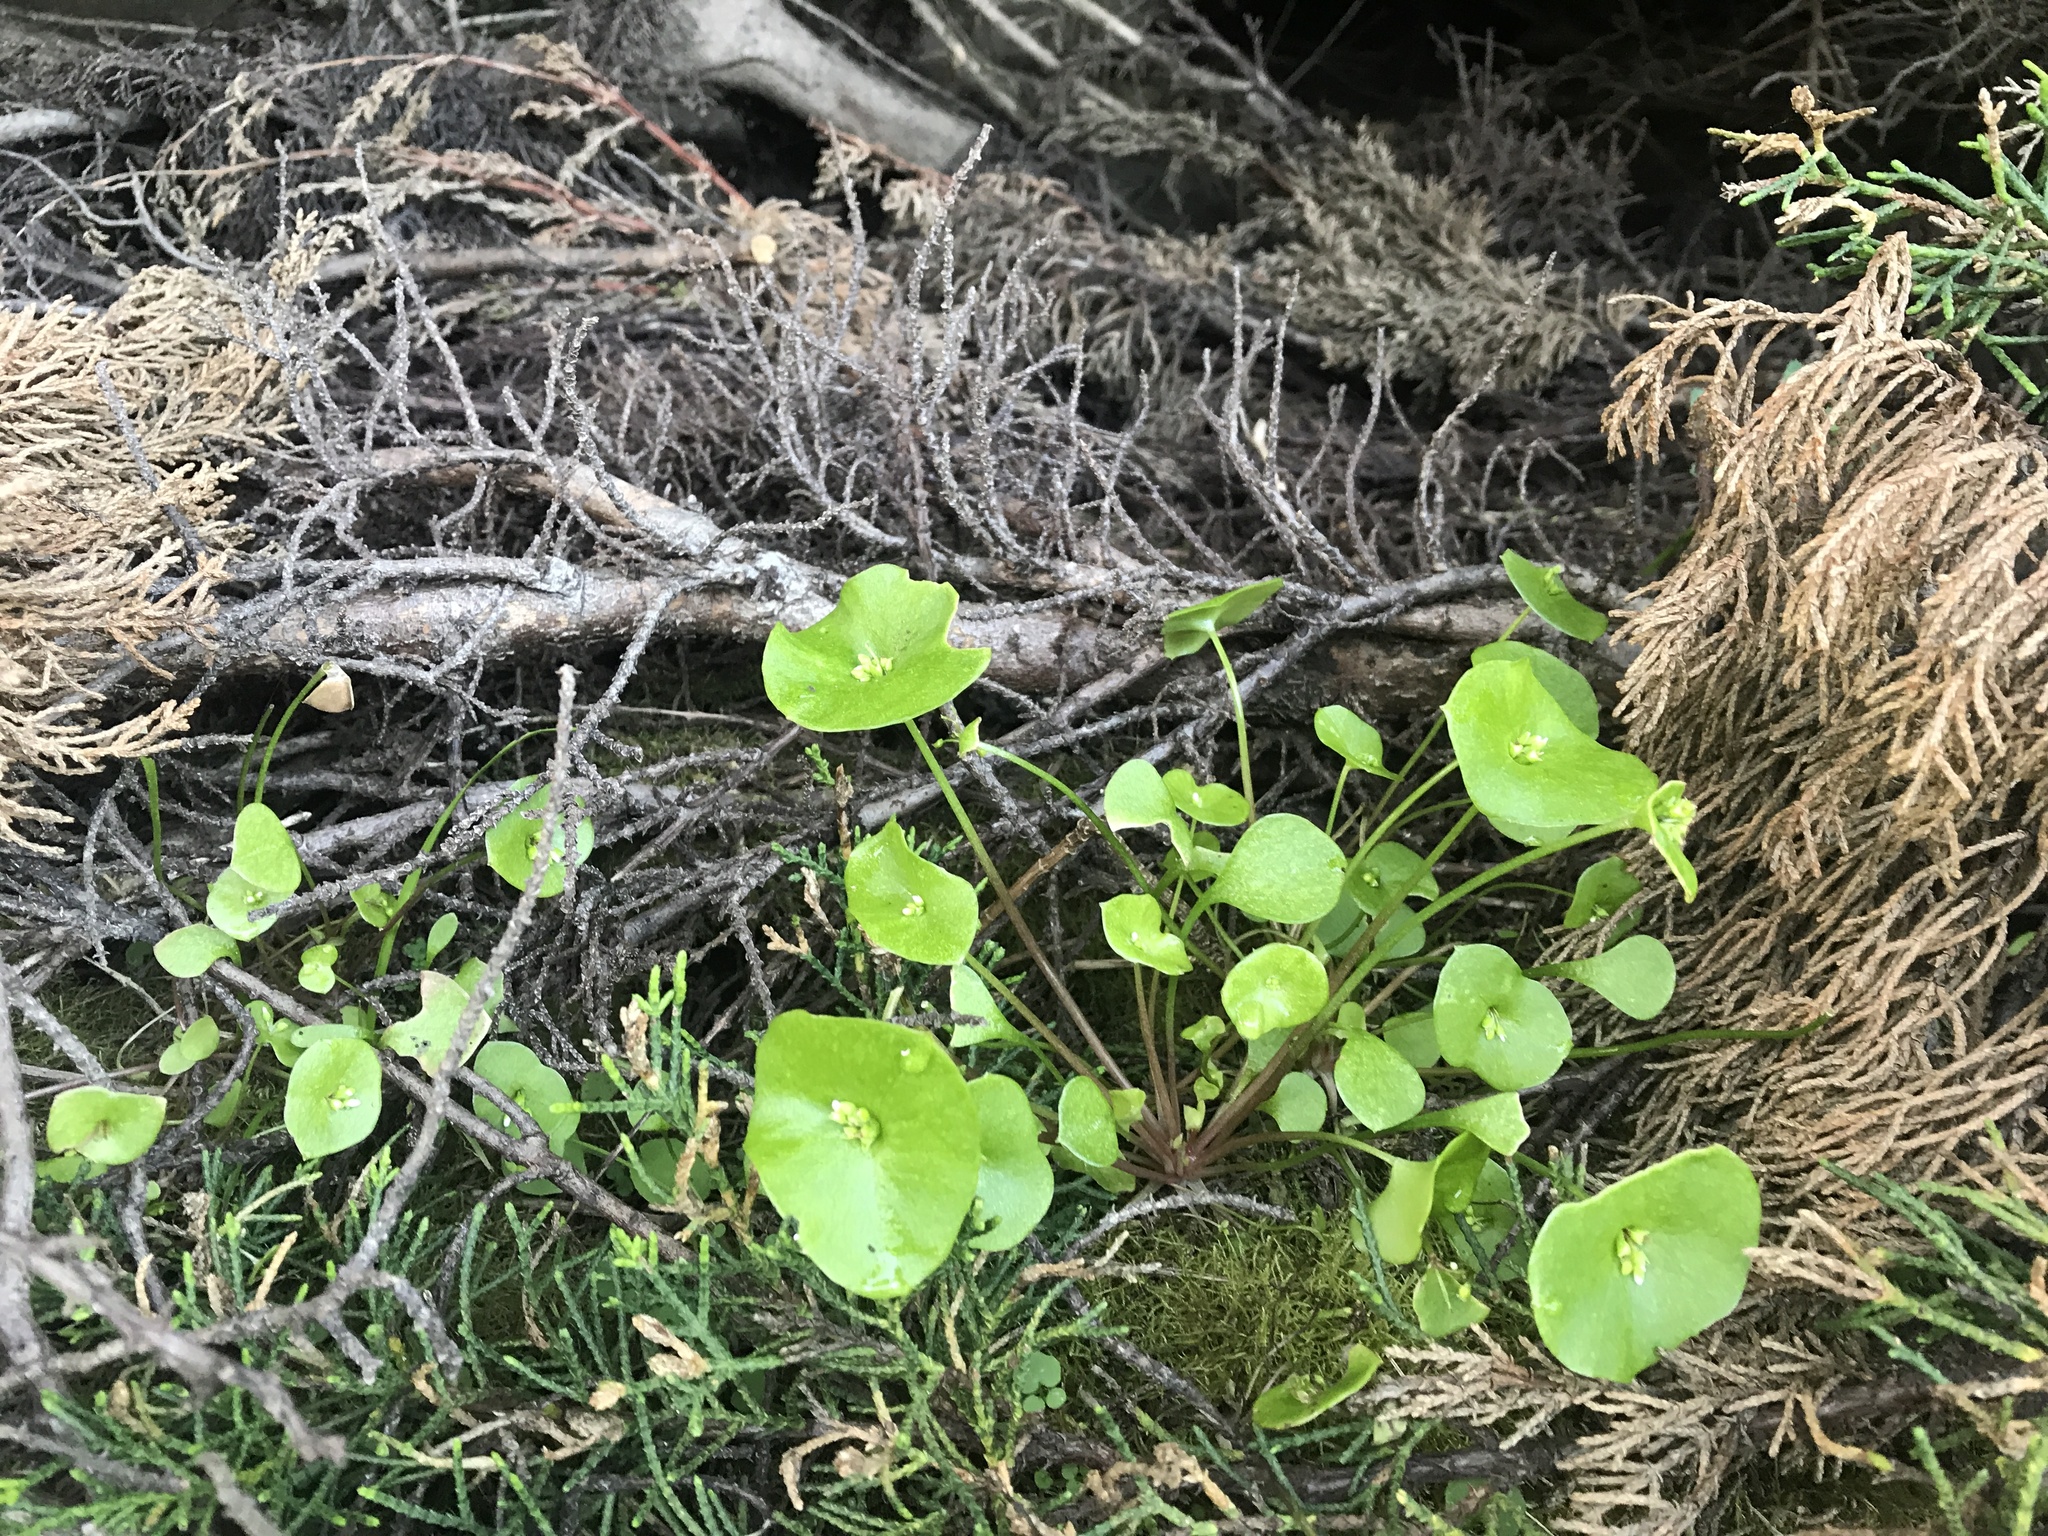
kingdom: Plantae
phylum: Tracheophyta
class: Magnoliopsida
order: Caryophyllales
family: Montiaceae
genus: Claytonia
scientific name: Claytonia perfoliata
